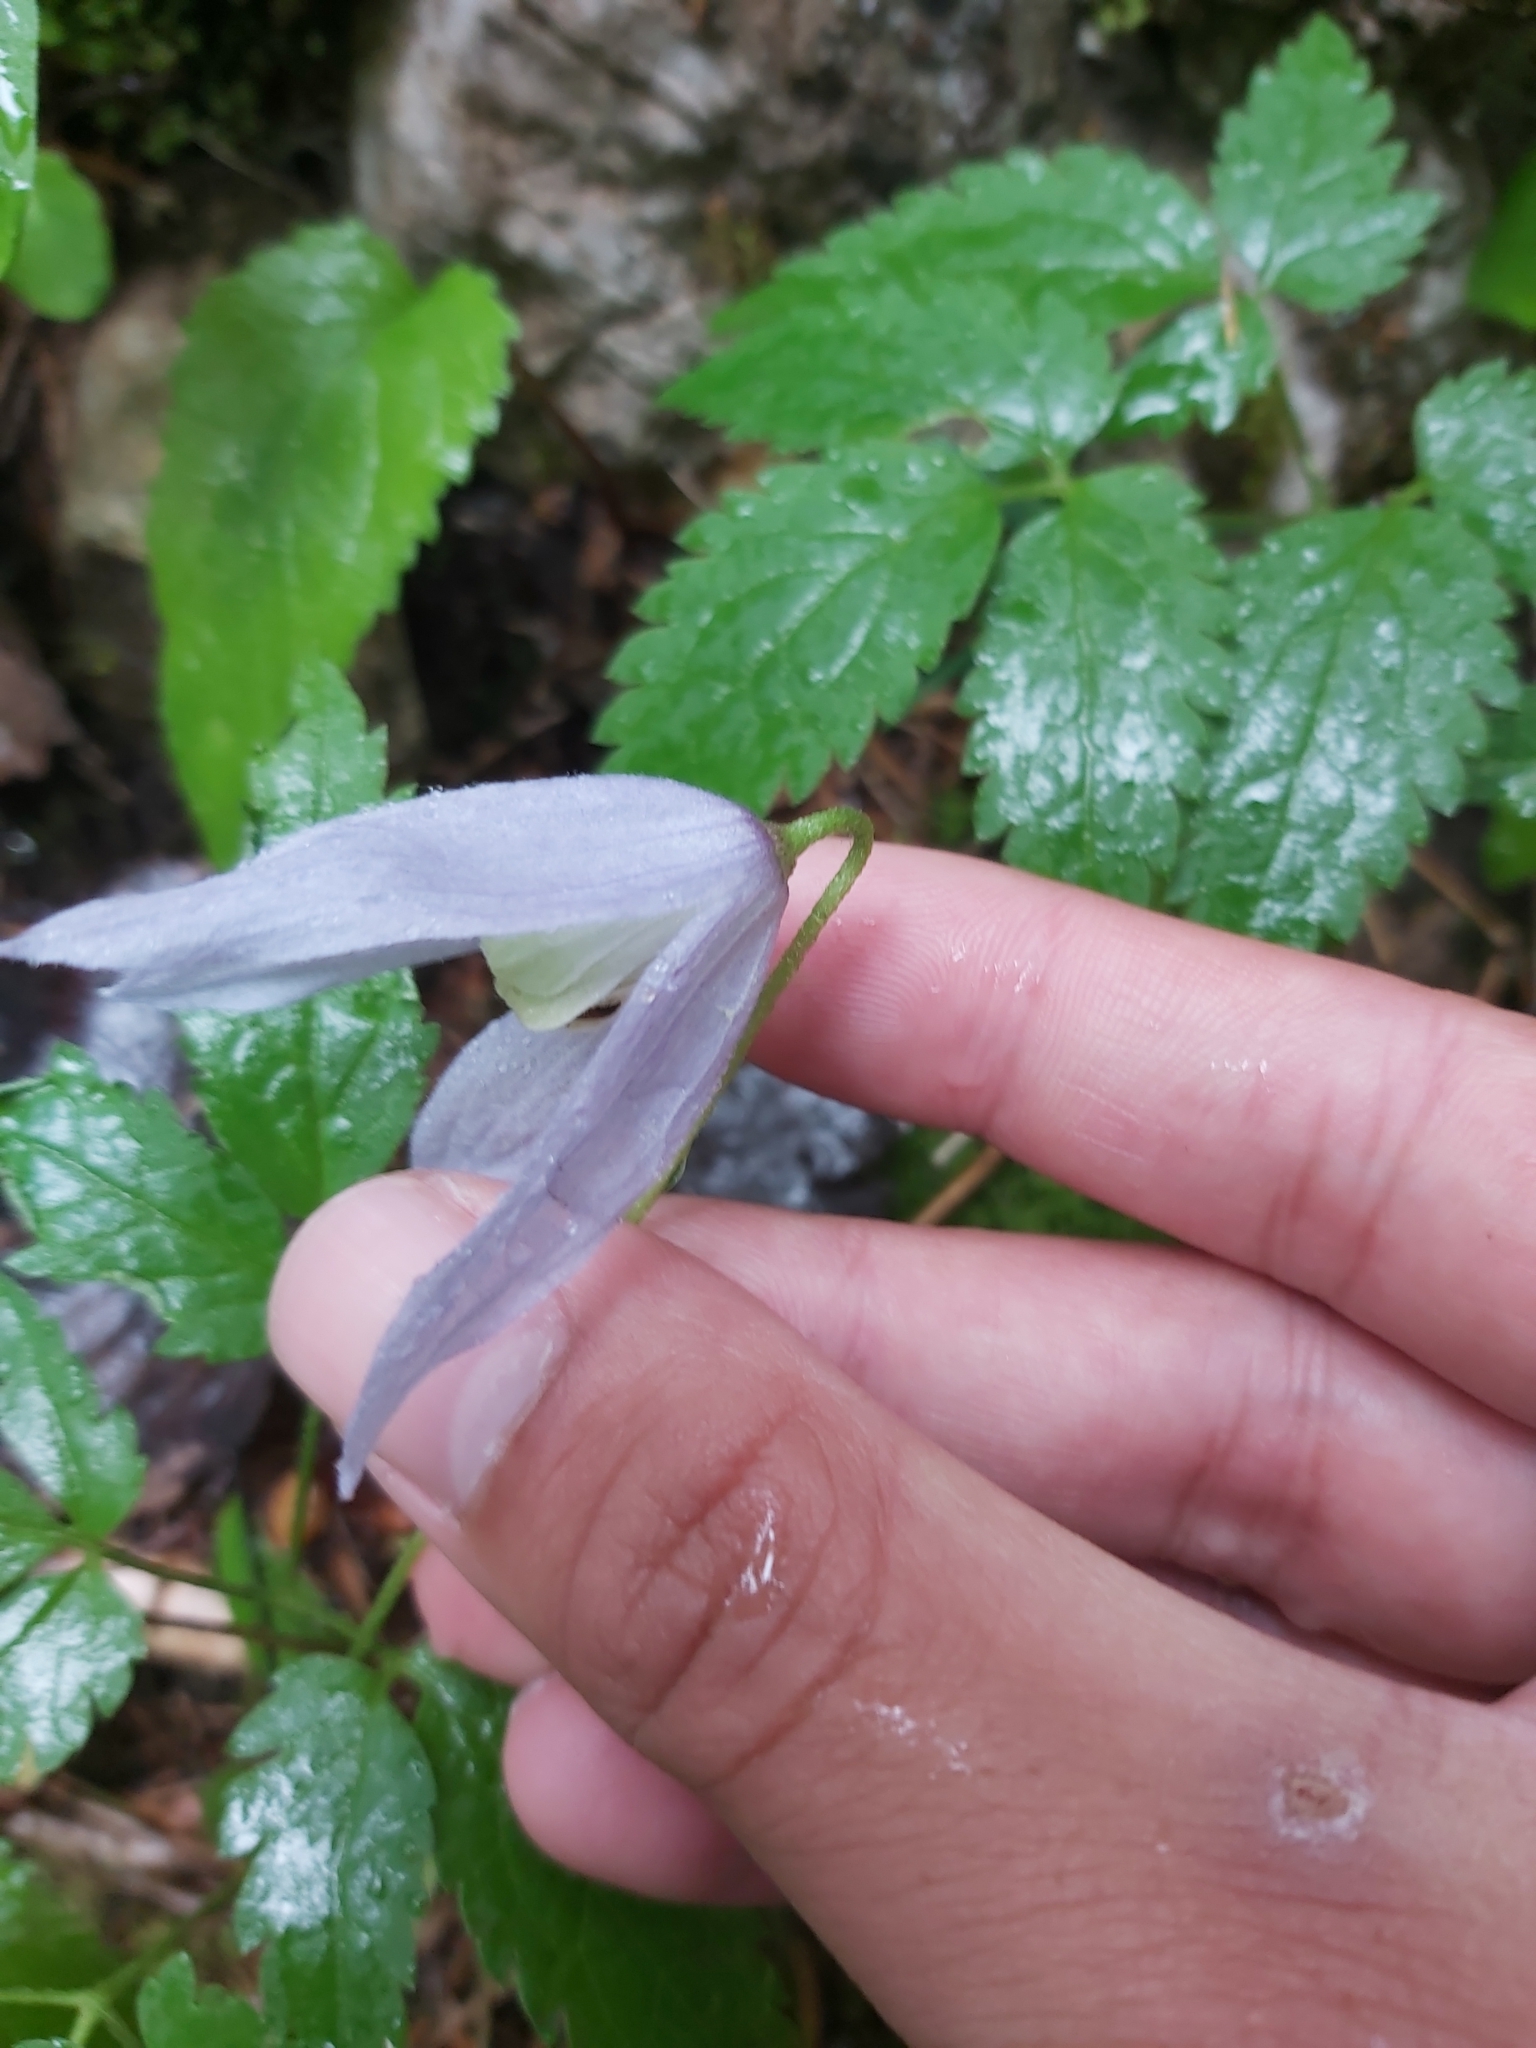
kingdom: Plantae
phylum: Tracheophyta
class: Magnoliopsida
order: Ranunculales
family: Ranunculaceae
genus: Clematis
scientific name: Clematis alpina
